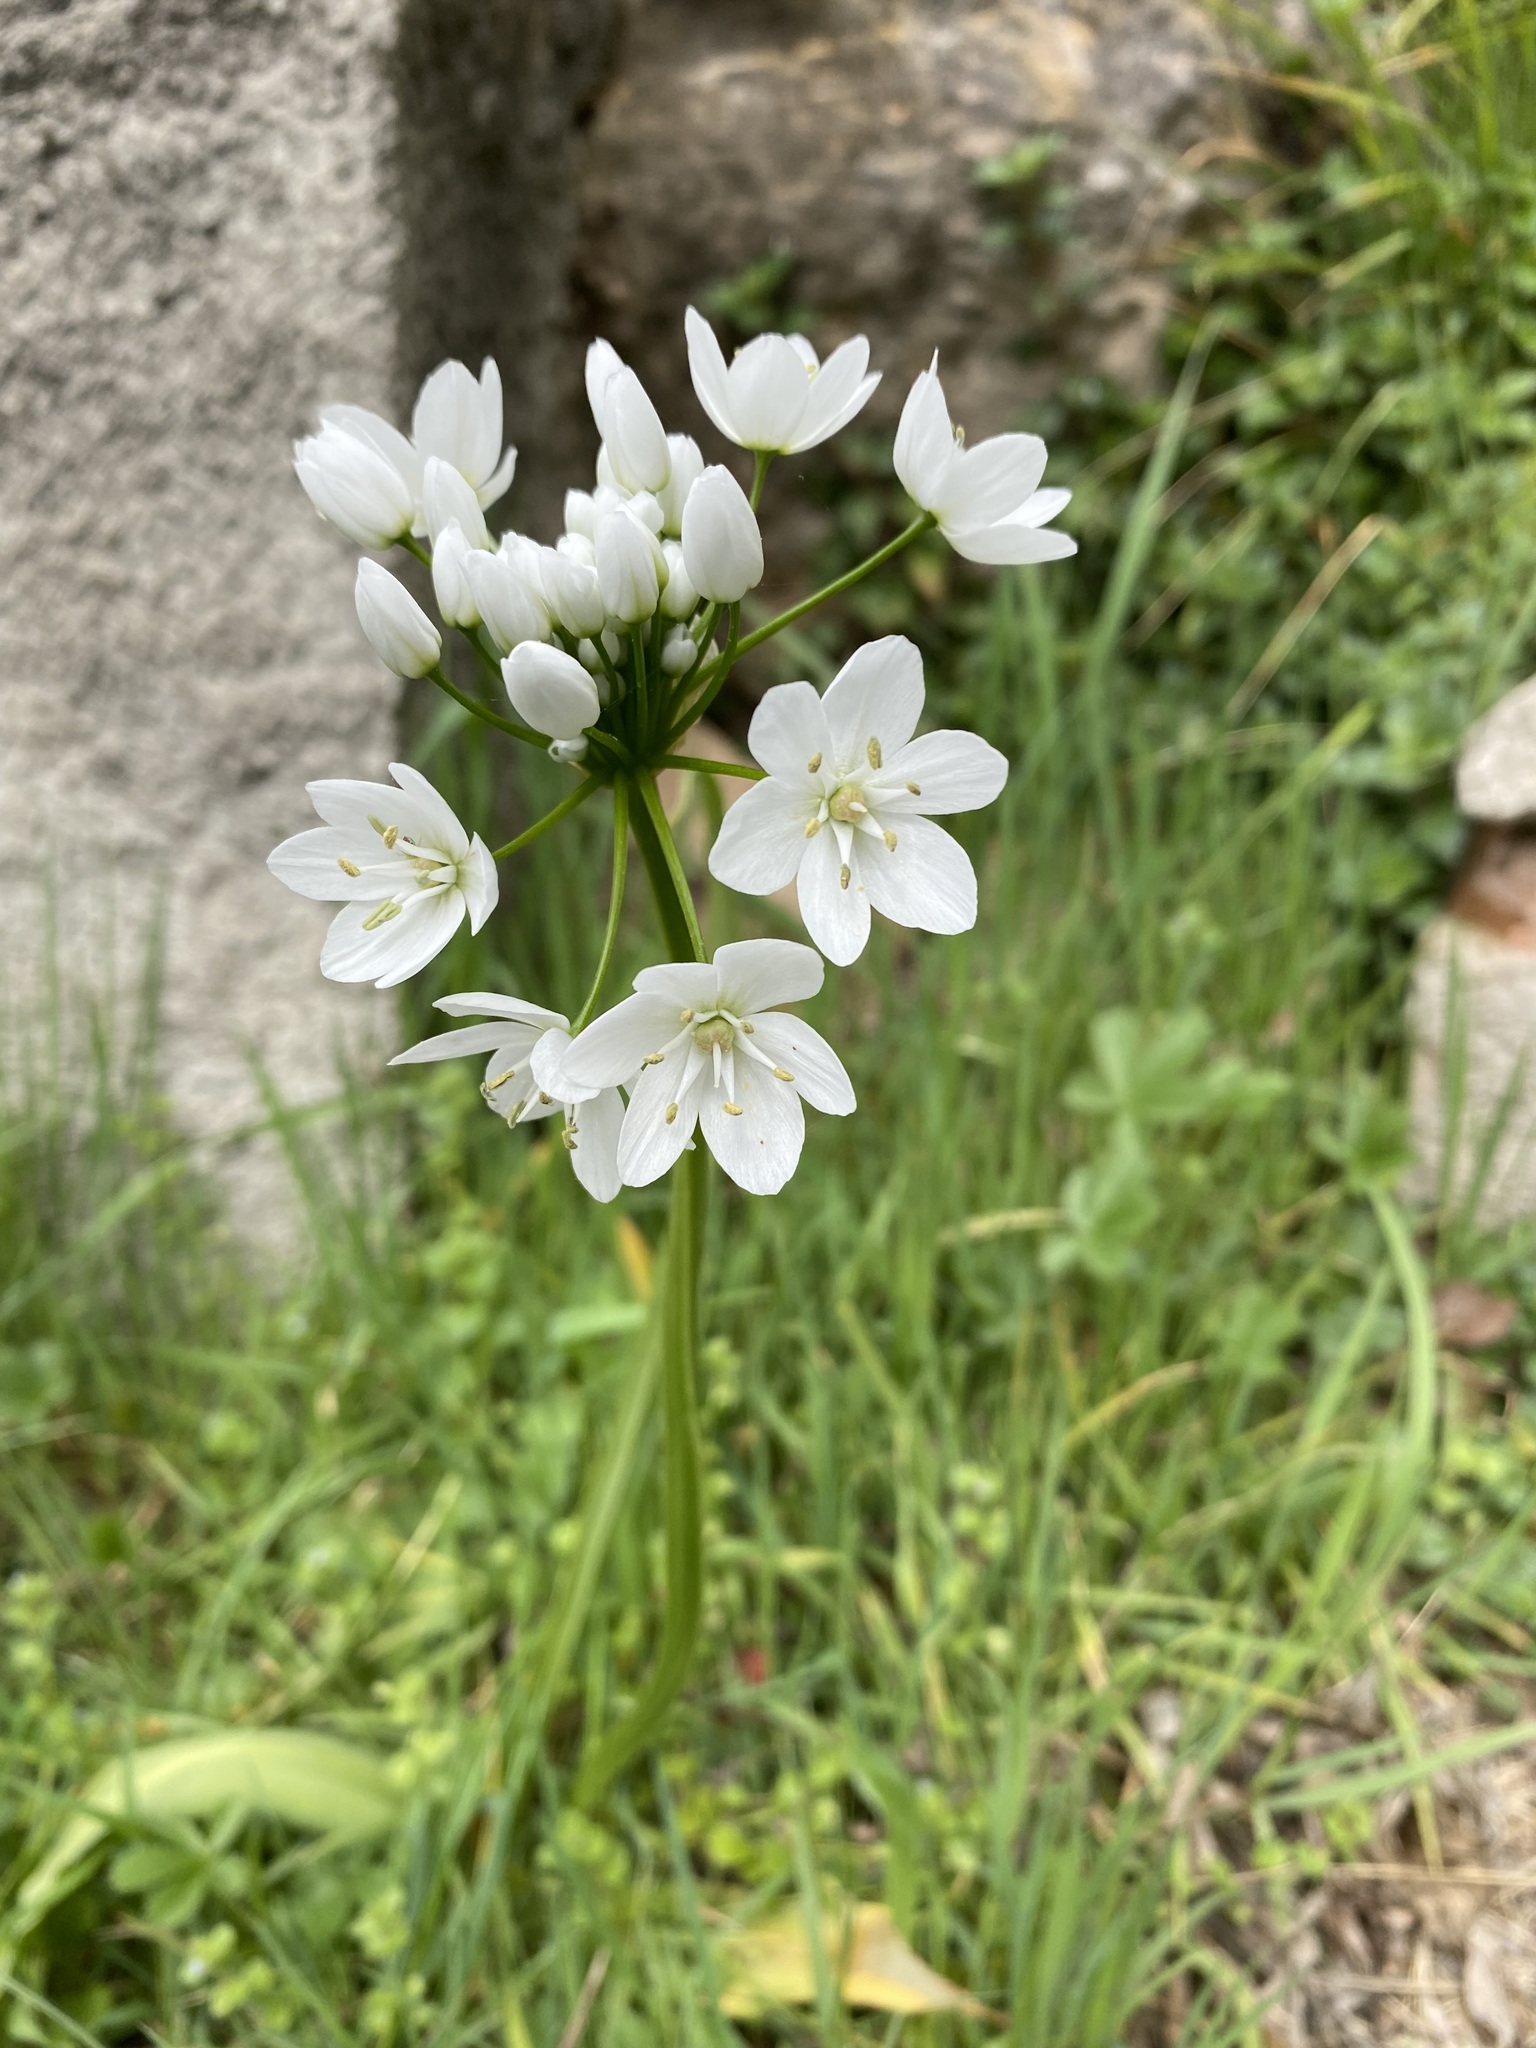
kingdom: Plantae
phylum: Tracheophyta
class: Liliopsida
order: Asparagales
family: Amaryllidaceae
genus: Allium
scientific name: Allium neapolitanum
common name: Neapolitan garlic
